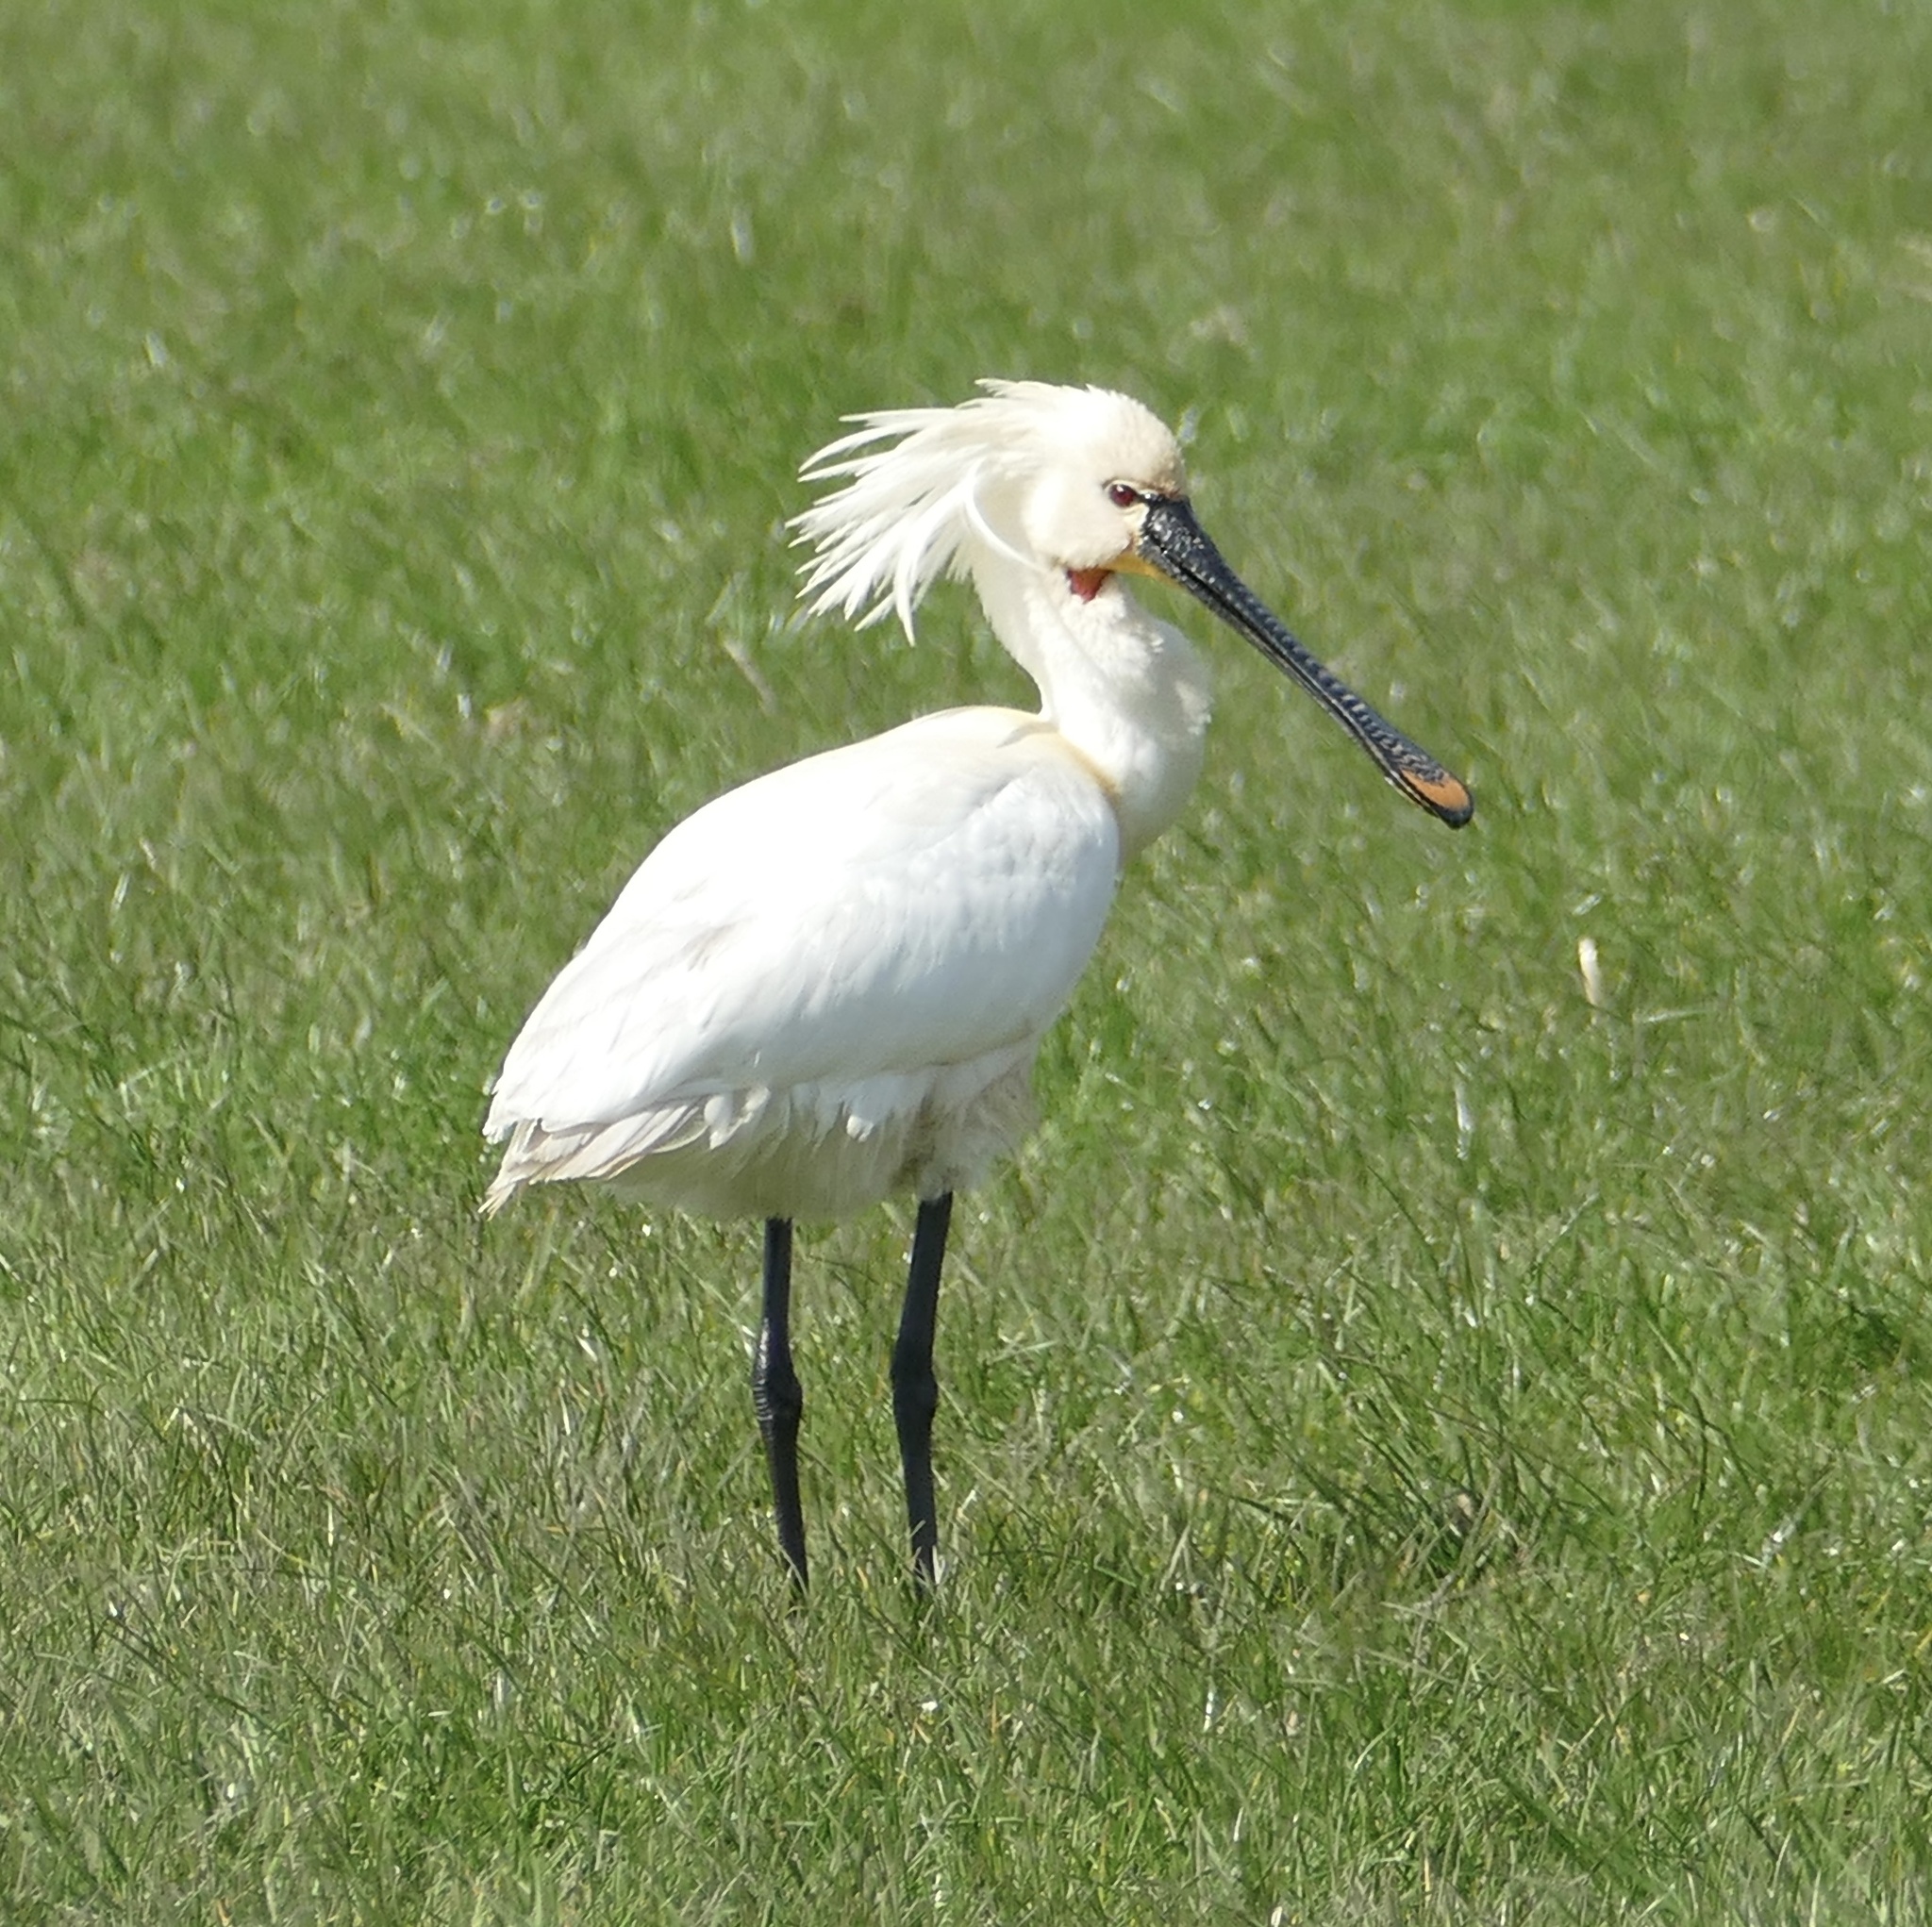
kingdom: Animalia
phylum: Chordata
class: Aves
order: Pelecaniformes
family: Threskiornithidae
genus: Platalea
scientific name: Platalea leucorodia
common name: Eurasian spoonbill
